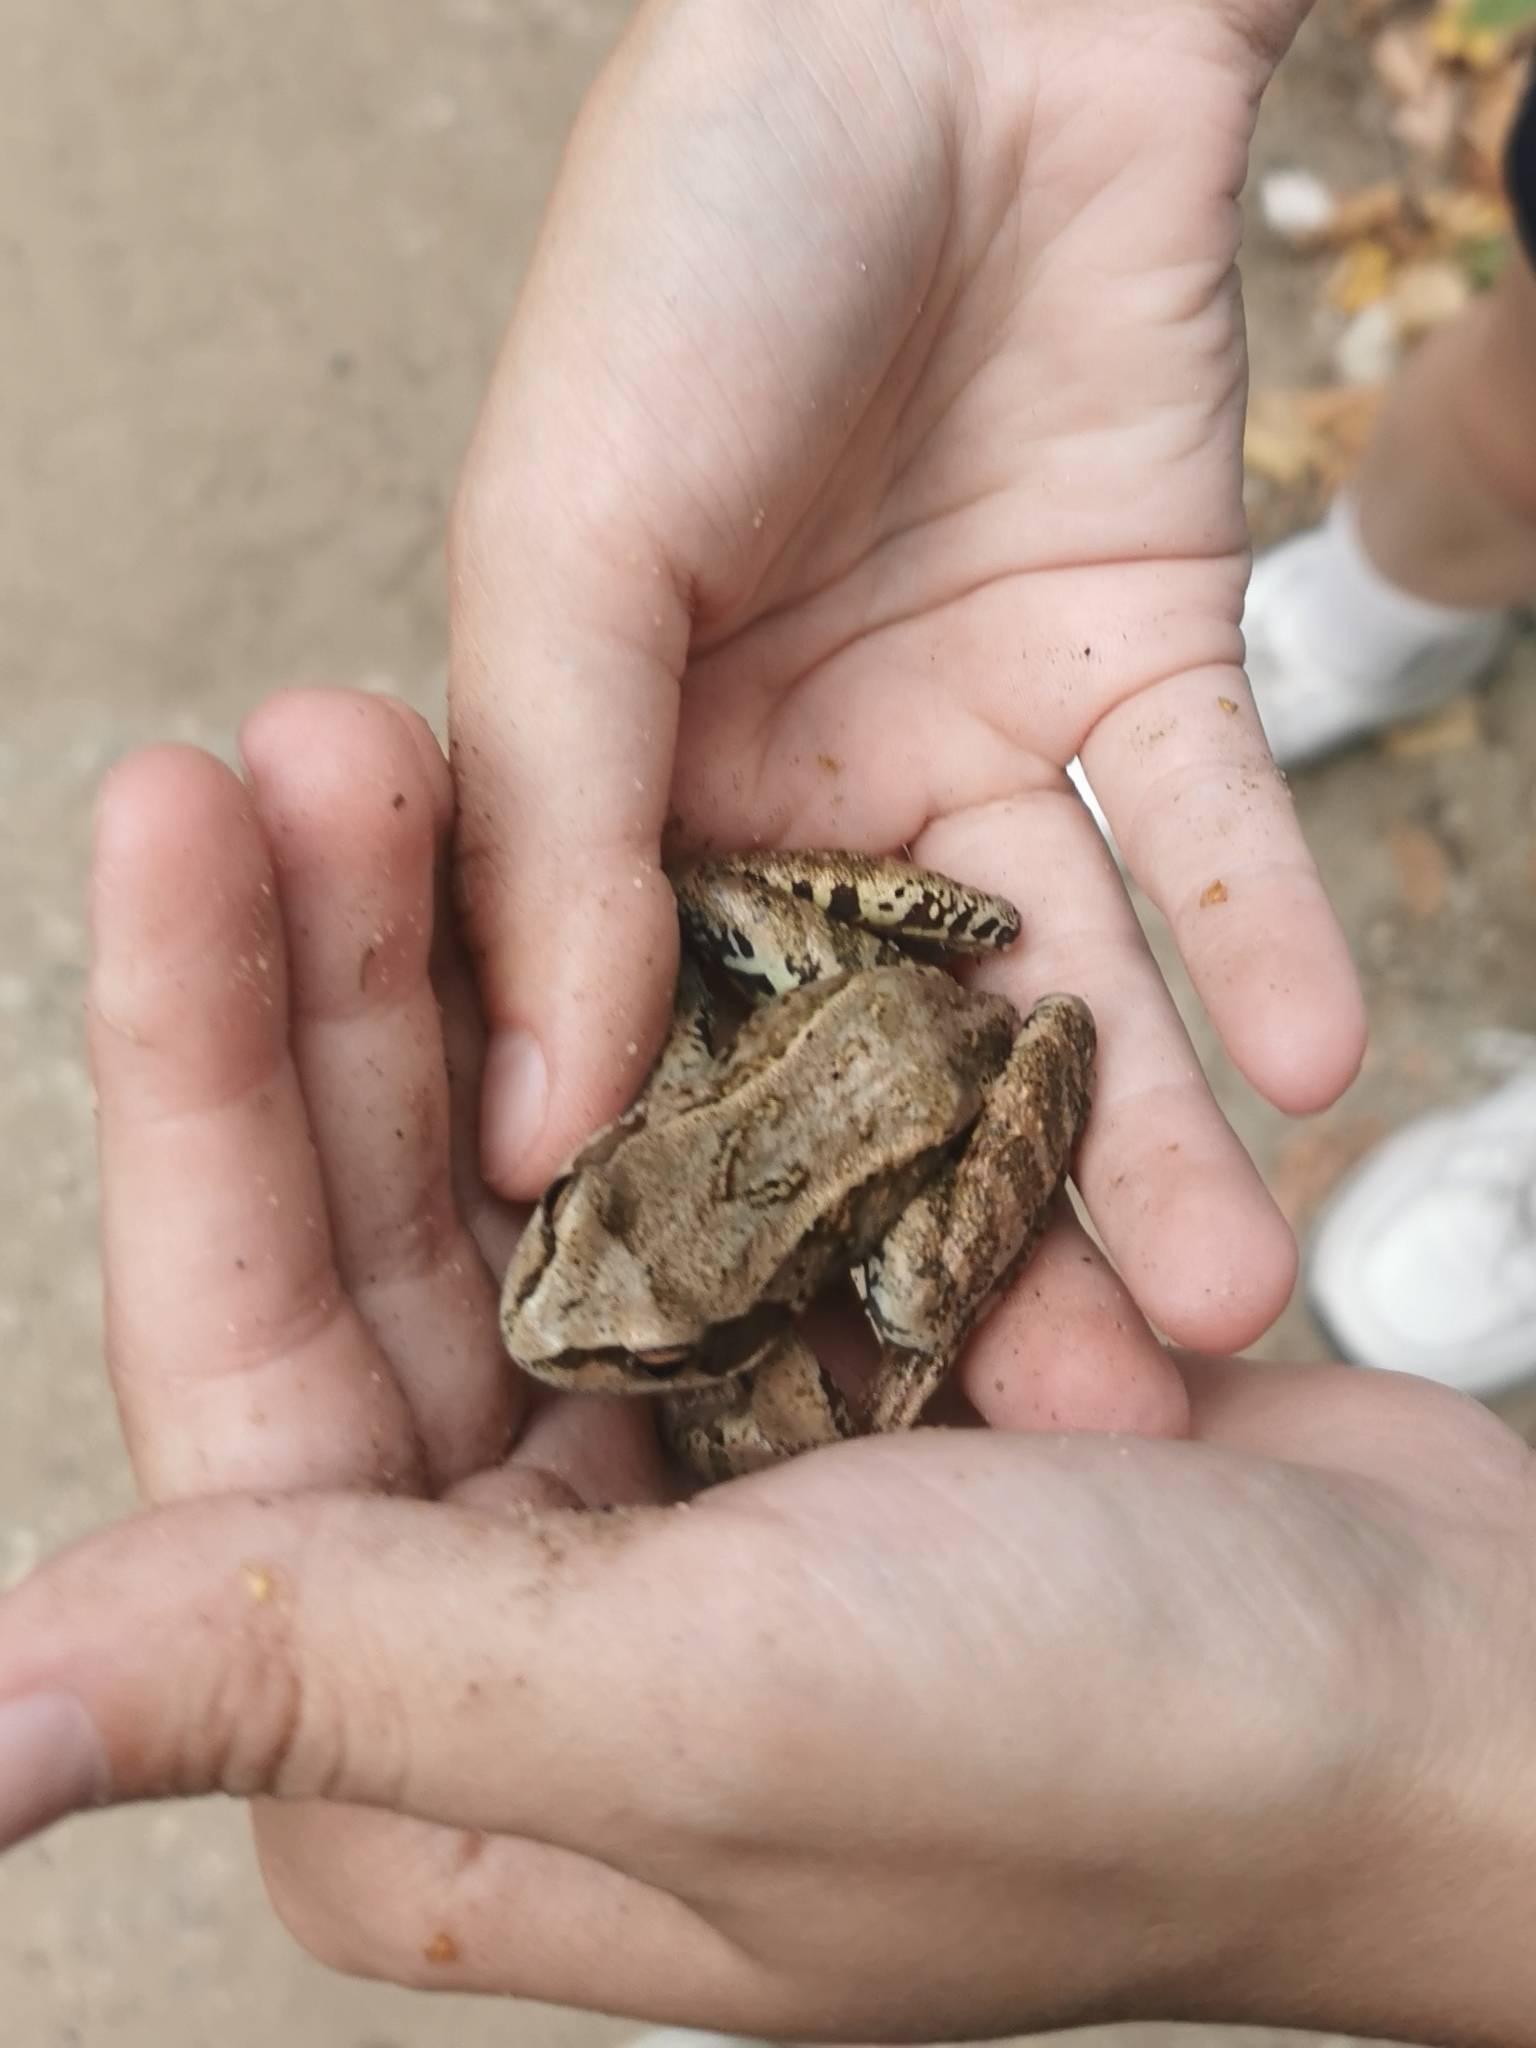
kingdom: Animalia
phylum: Chordata
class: Amphibia
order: Anura
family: Ranidae
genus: Rana
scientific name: Rana temporaria
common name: Common frog
